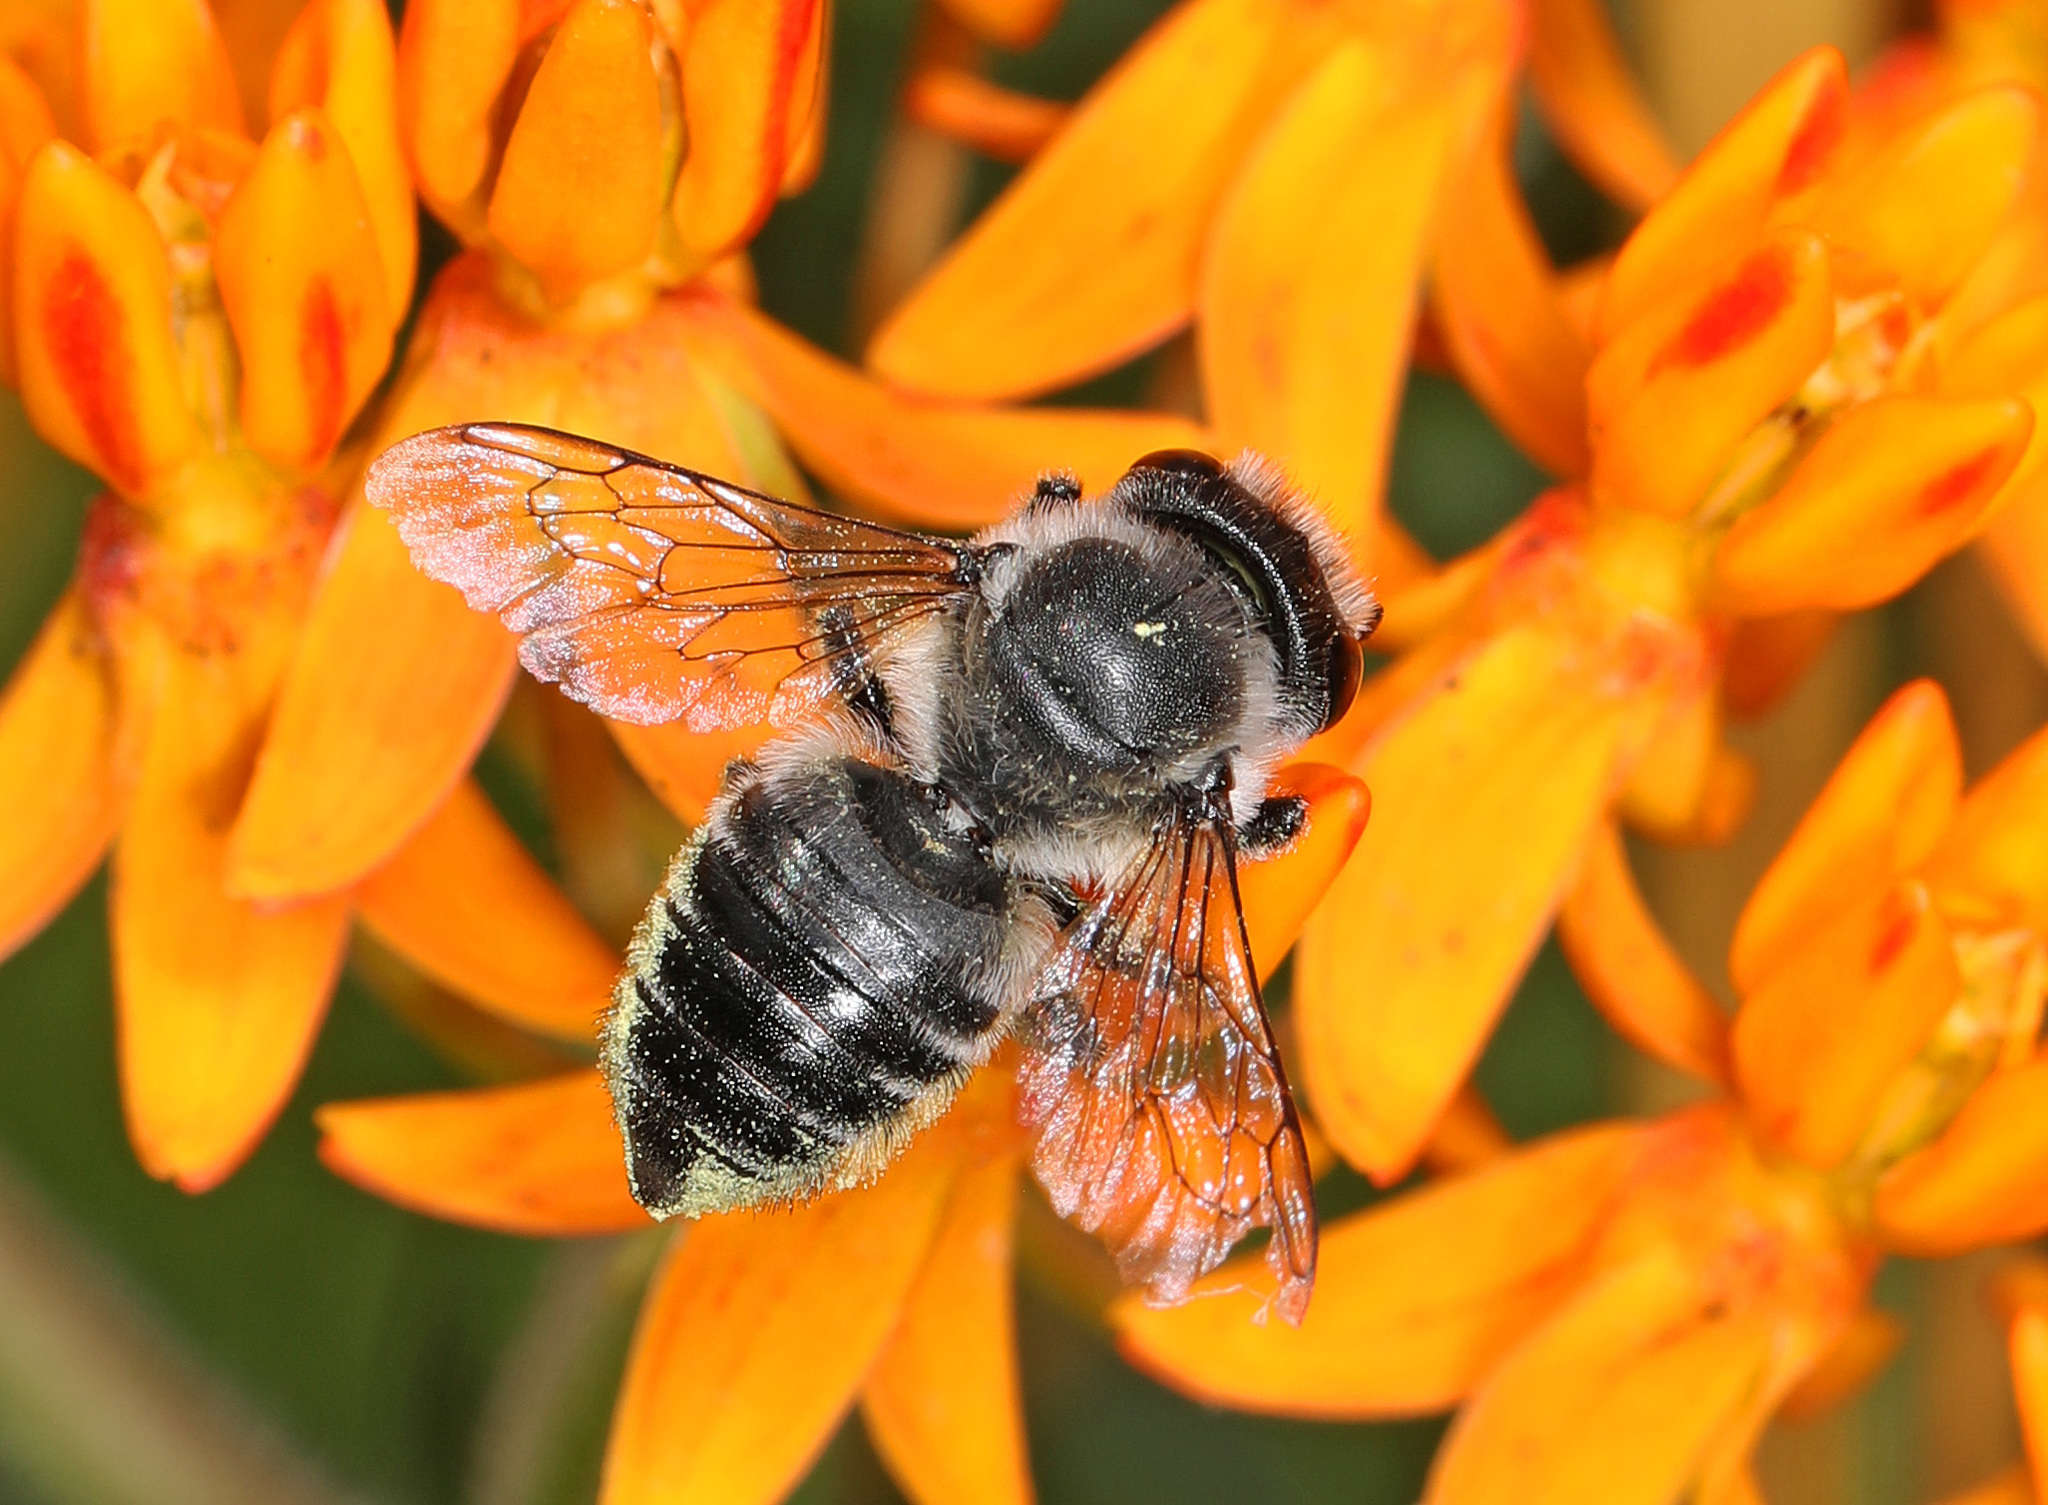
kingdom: Animalia
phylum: Arthropoda
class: Insecta
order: Hymenoptera
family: Megachilidae
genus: Megachile
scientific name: Megachile
